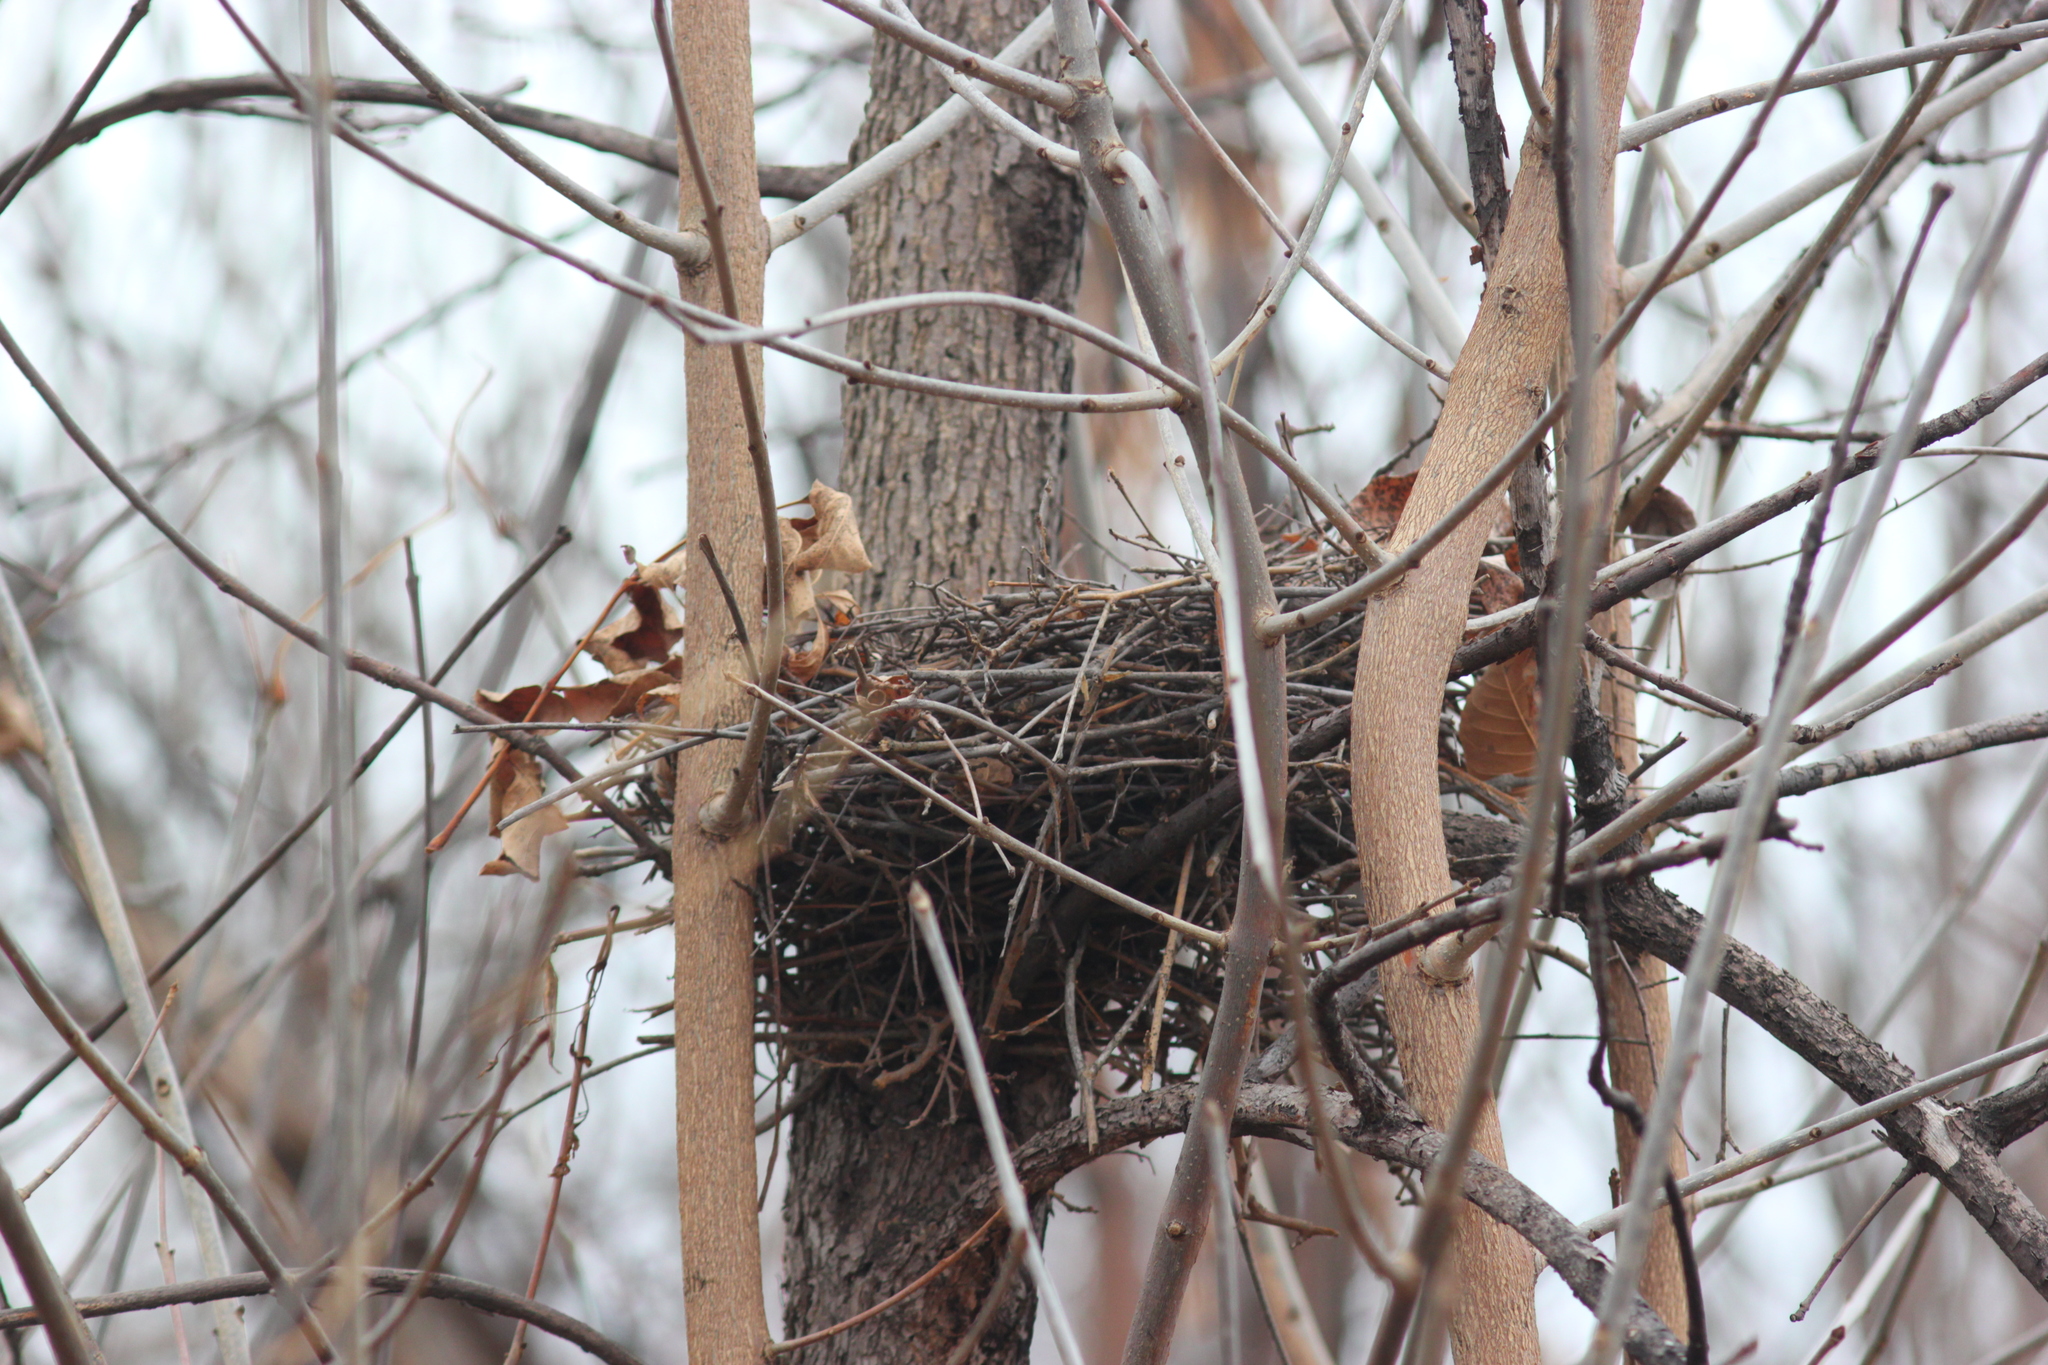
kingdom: Animalia
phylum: Chordata
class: Aves
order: Columbiformes
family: Columbidae
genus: Columba
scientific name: Columba palumbus
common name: Common wood pigeon
